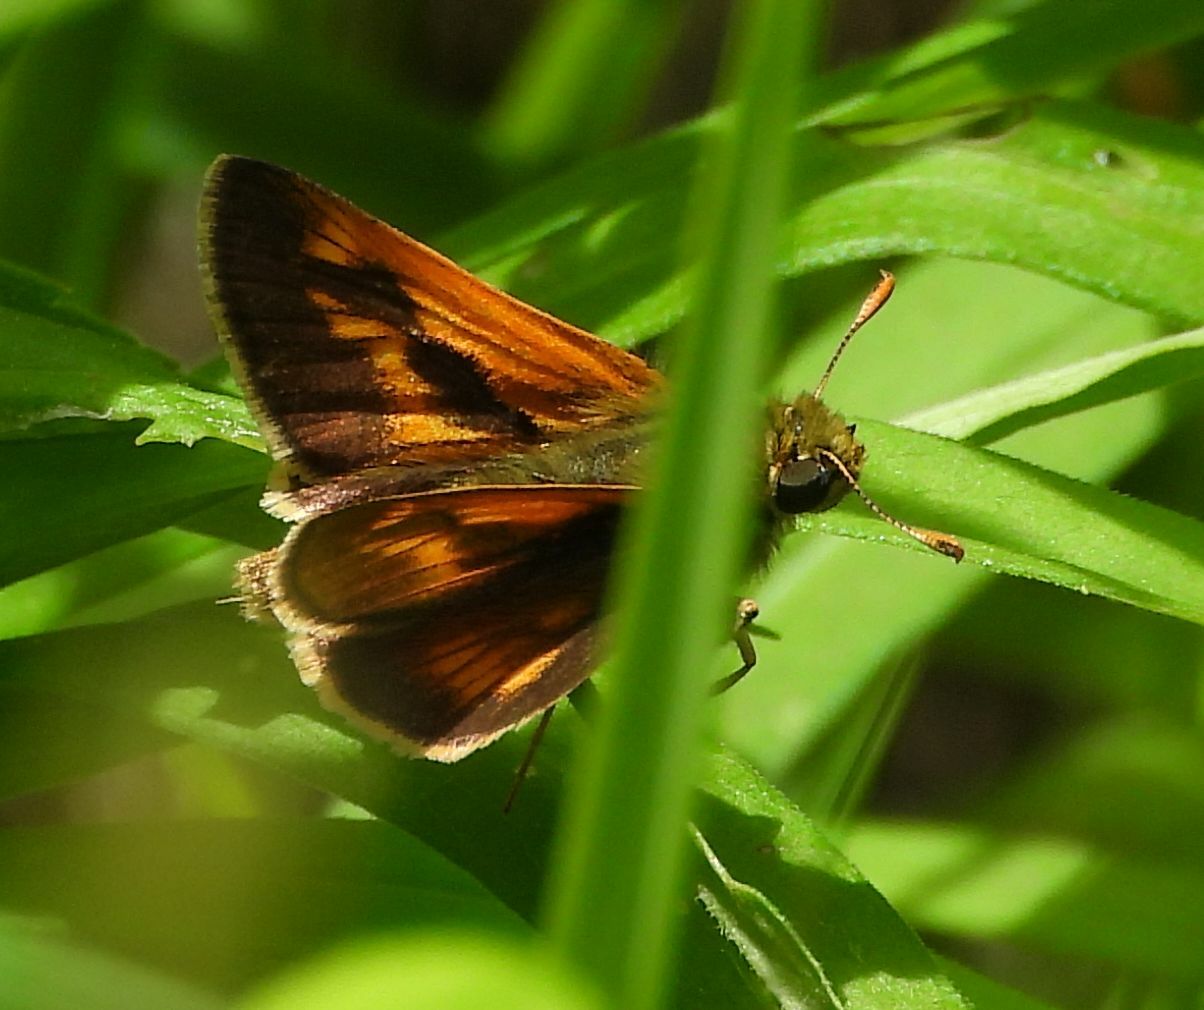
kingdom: Animalia
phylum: Arthropoda
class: Insecta
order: Lepidoptera
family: Hesperiidae
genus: Polites
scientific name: Polites mystic
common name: Long dash
